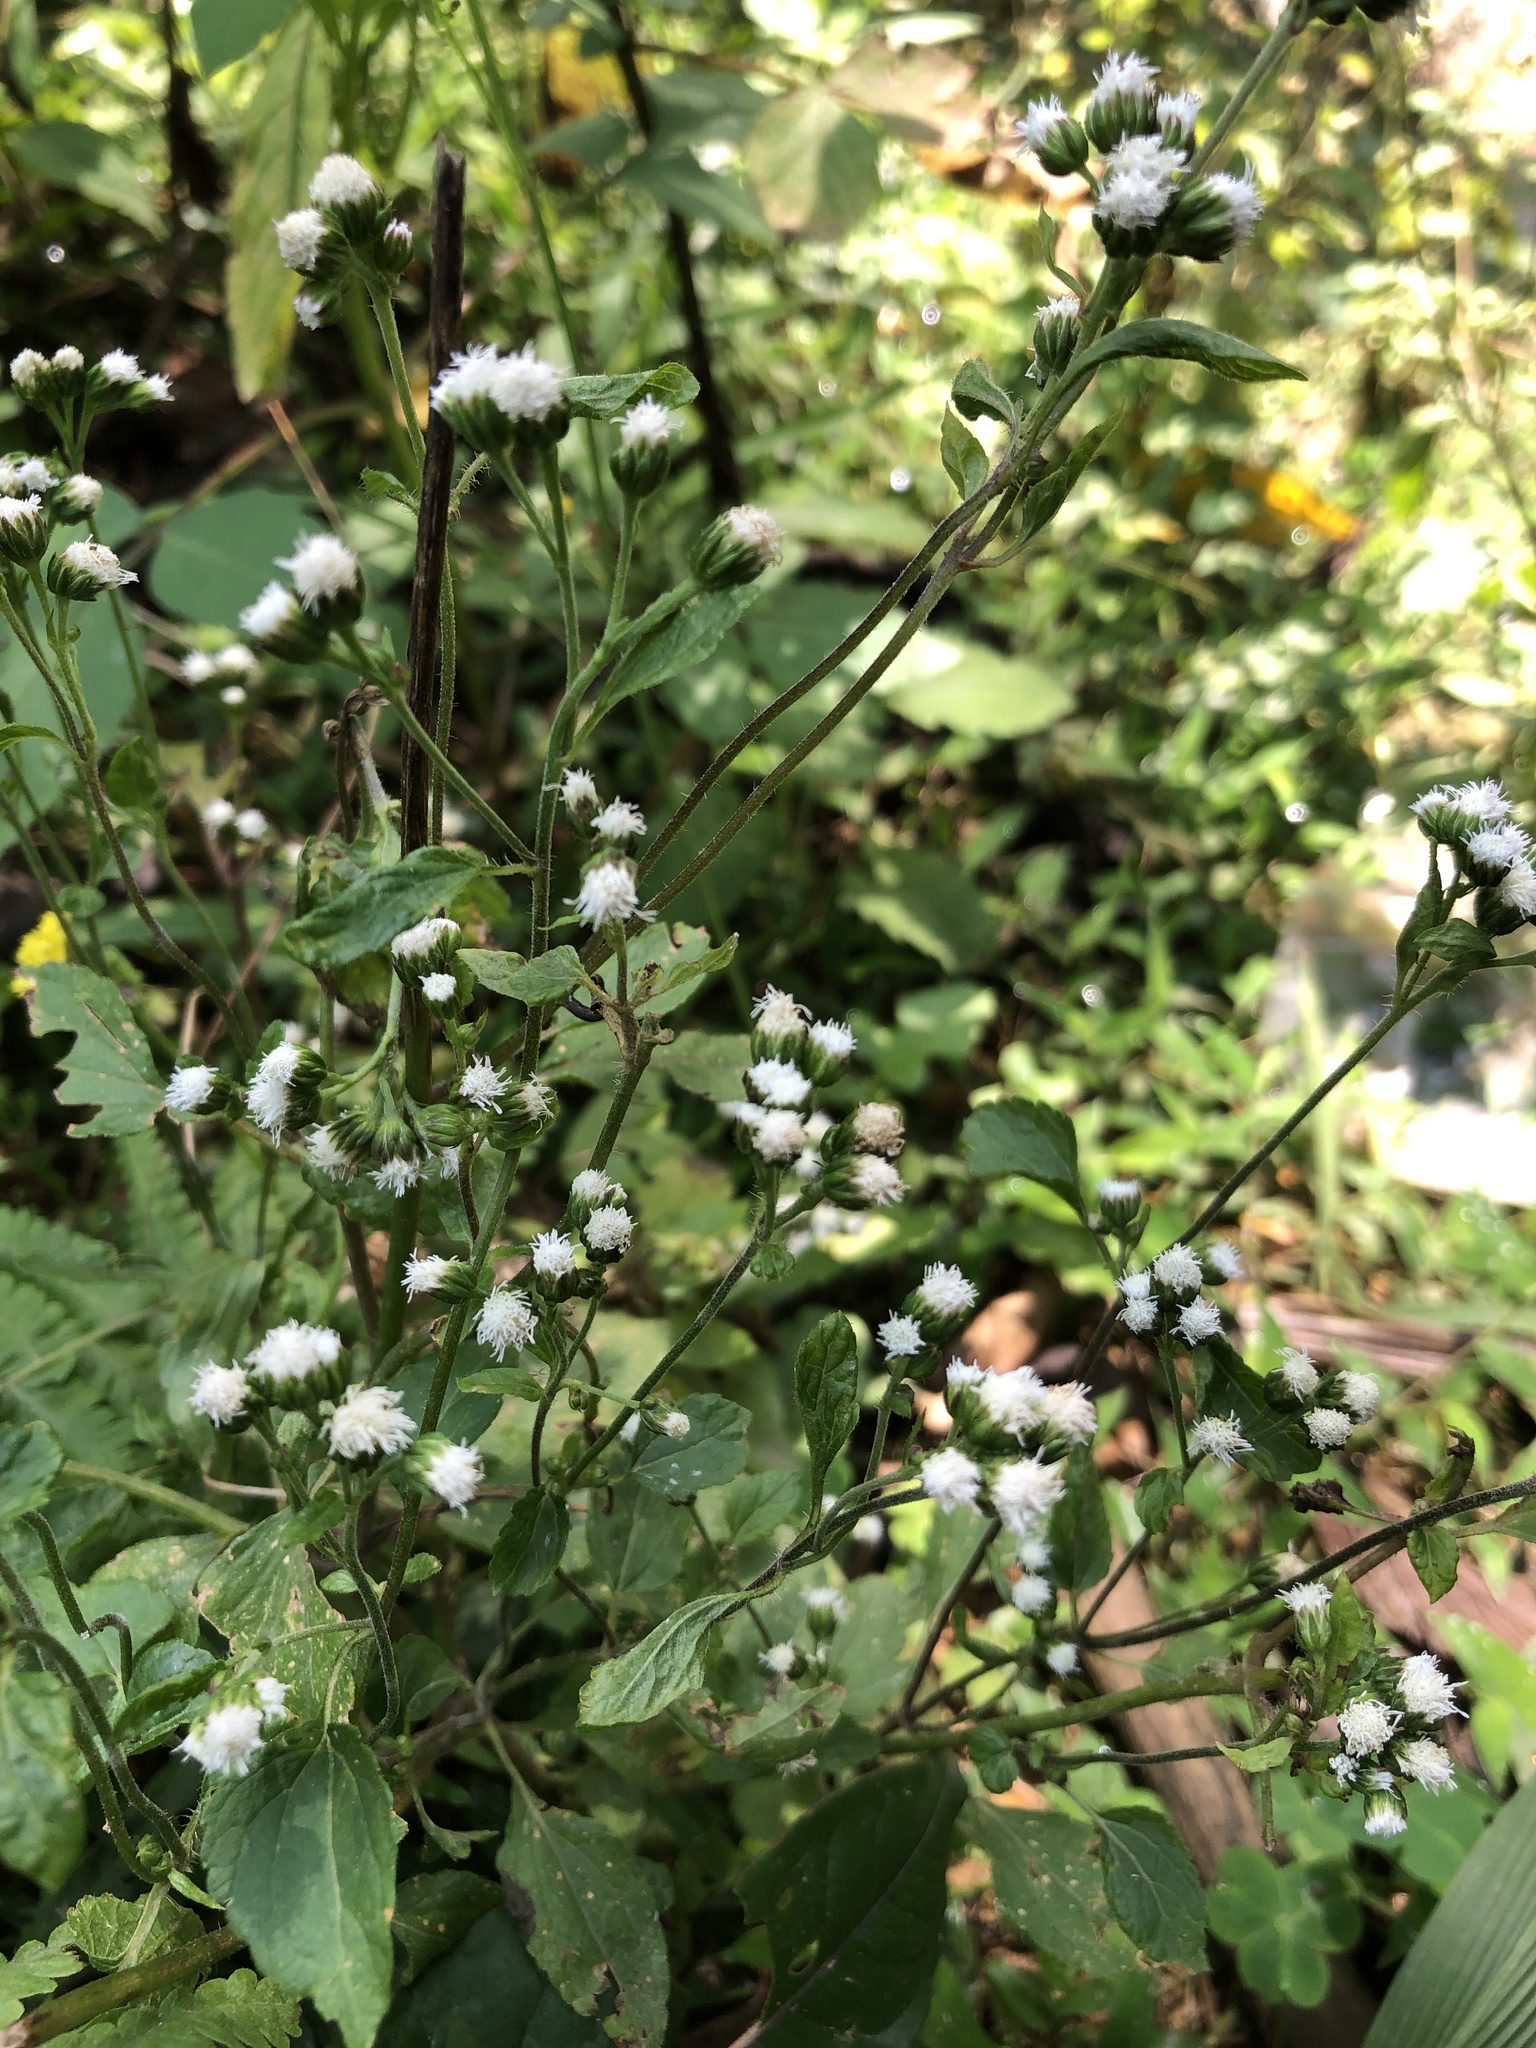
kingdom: Plantae
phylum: Tracheophyta
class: Magnoliopsida
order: Asterales
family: Asteraceae
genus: Ageratum
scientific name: Ageratum conyzoides
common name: Tropical whiteweed
